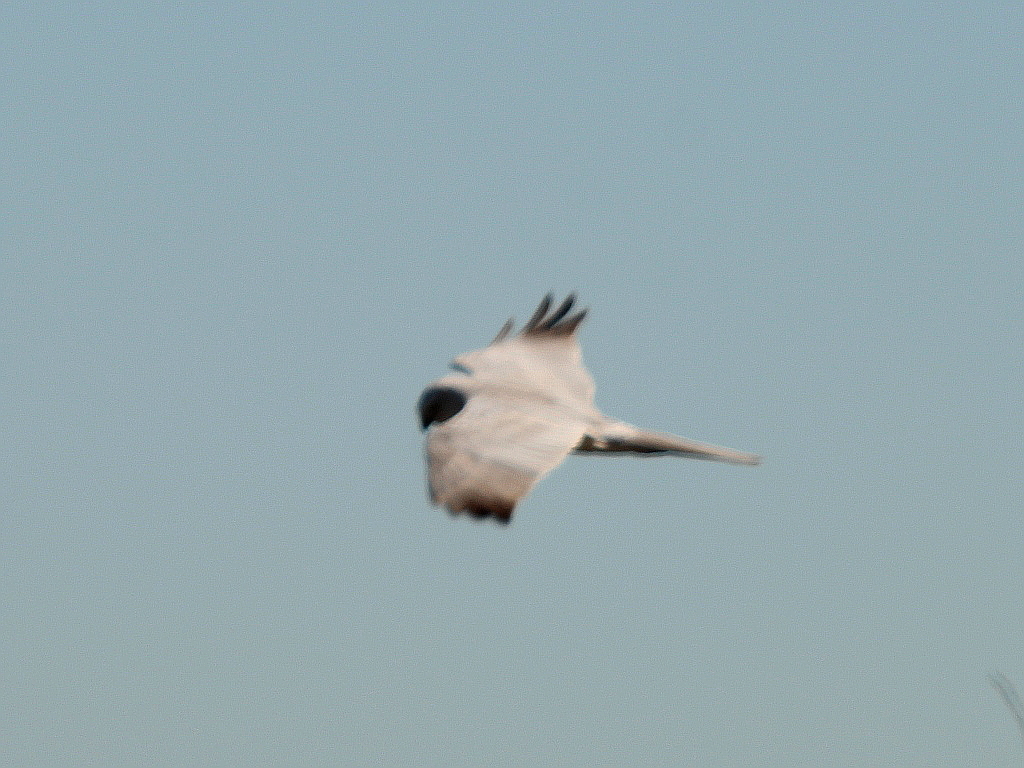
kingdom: Animalia
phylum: Chordata
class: Aves
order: Accipitriformes
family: Accipitridae
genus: Circus
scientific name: Circus macrourus
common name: Pallid harrier
